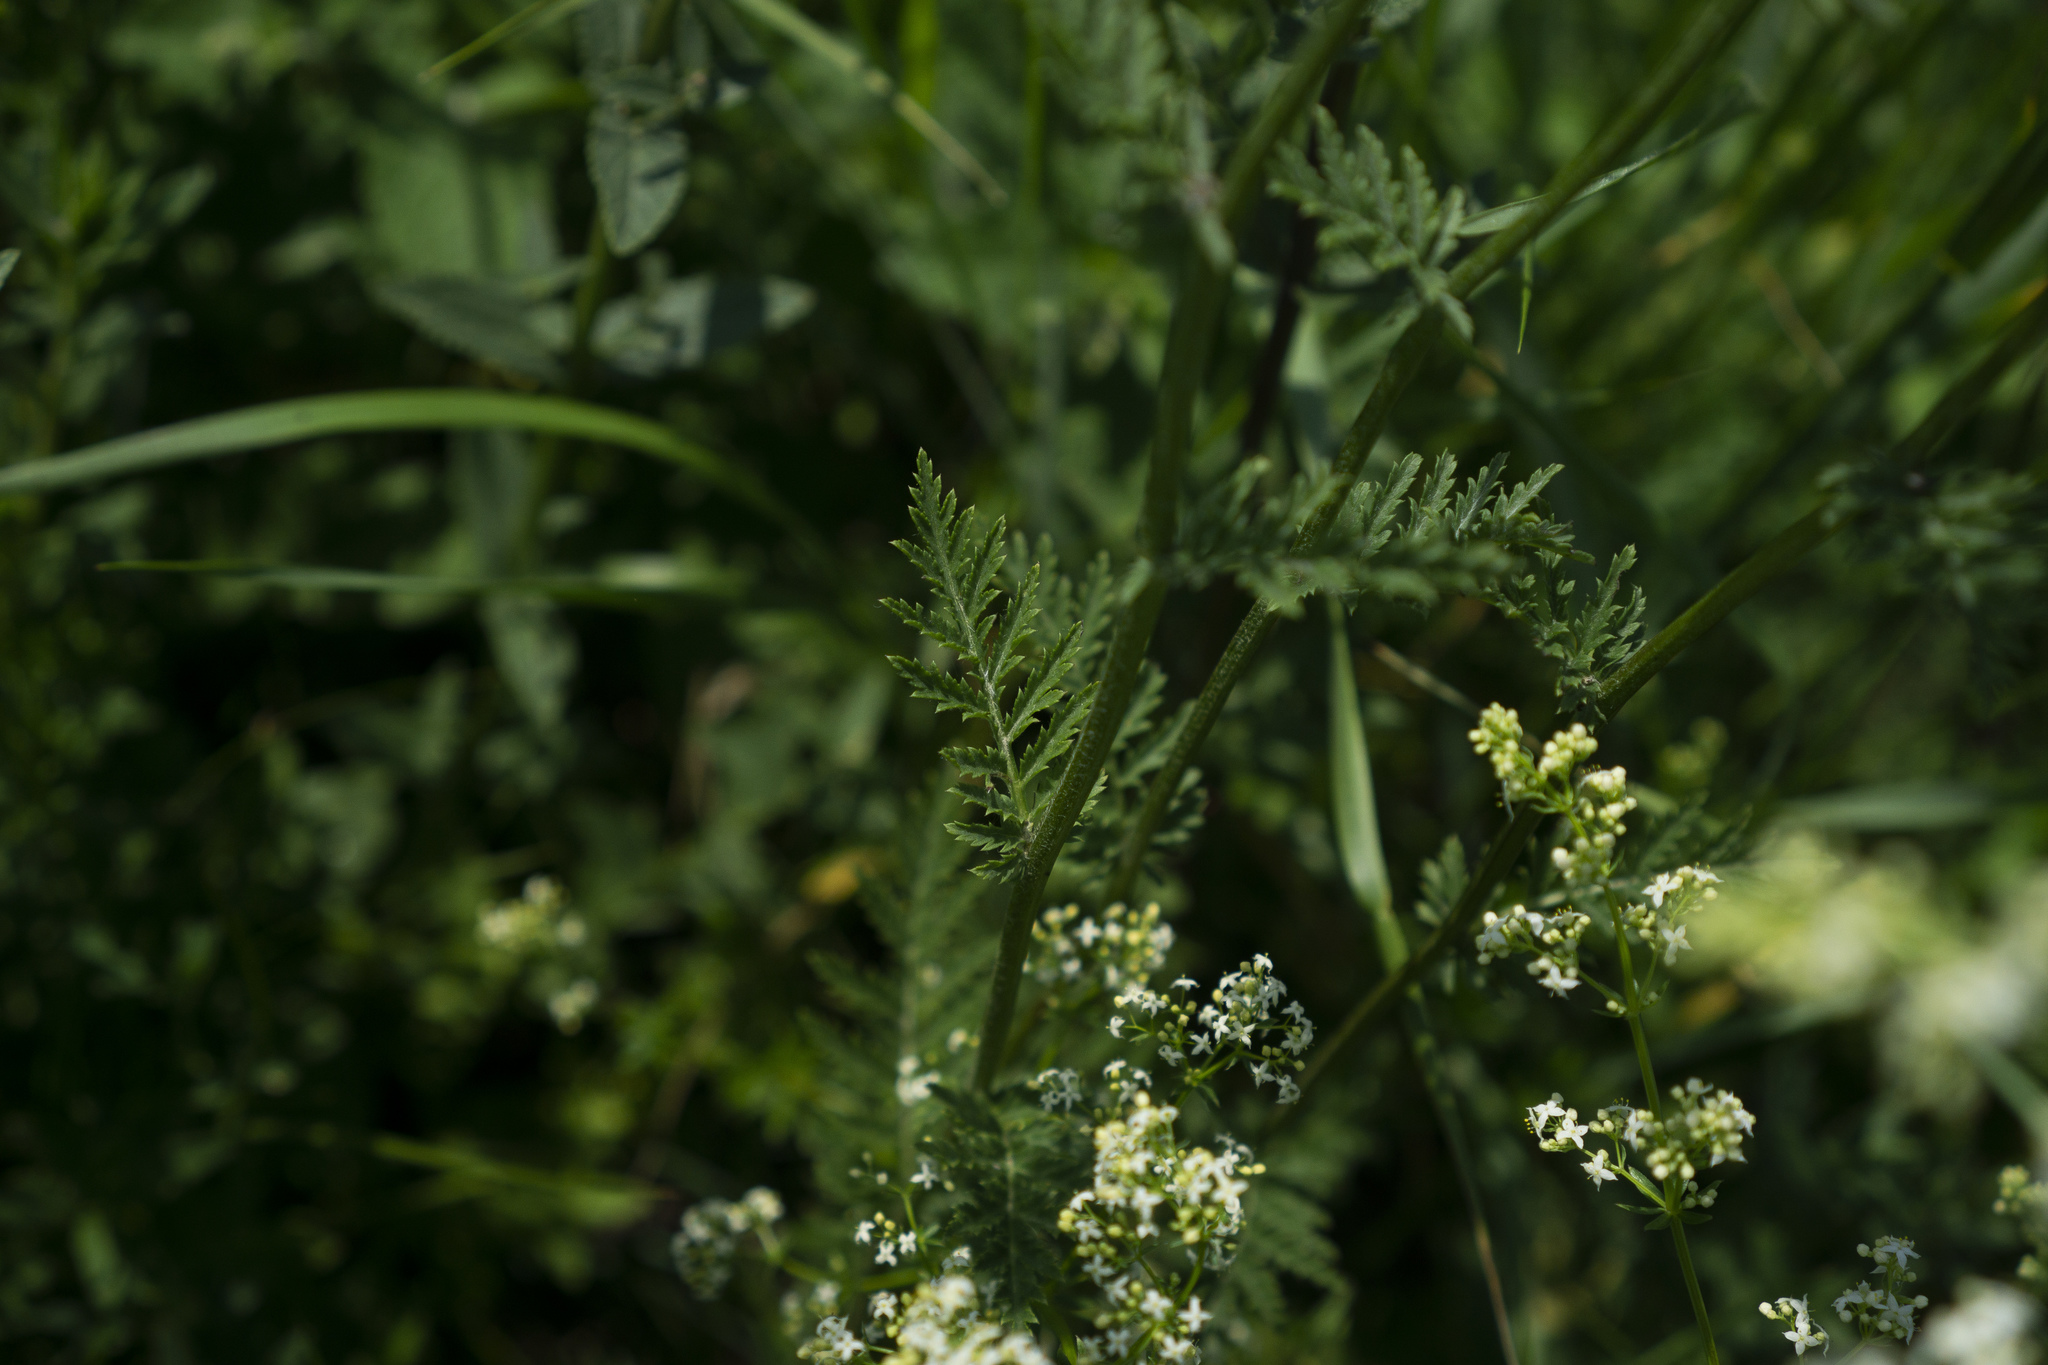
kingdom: Plantae
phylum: Tracheophyta
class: Magnoliopsida
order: Asterales
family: Asteraceae
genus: Tanacetum
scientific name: Tanacetum corymbosum
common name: Scentless feverfew
